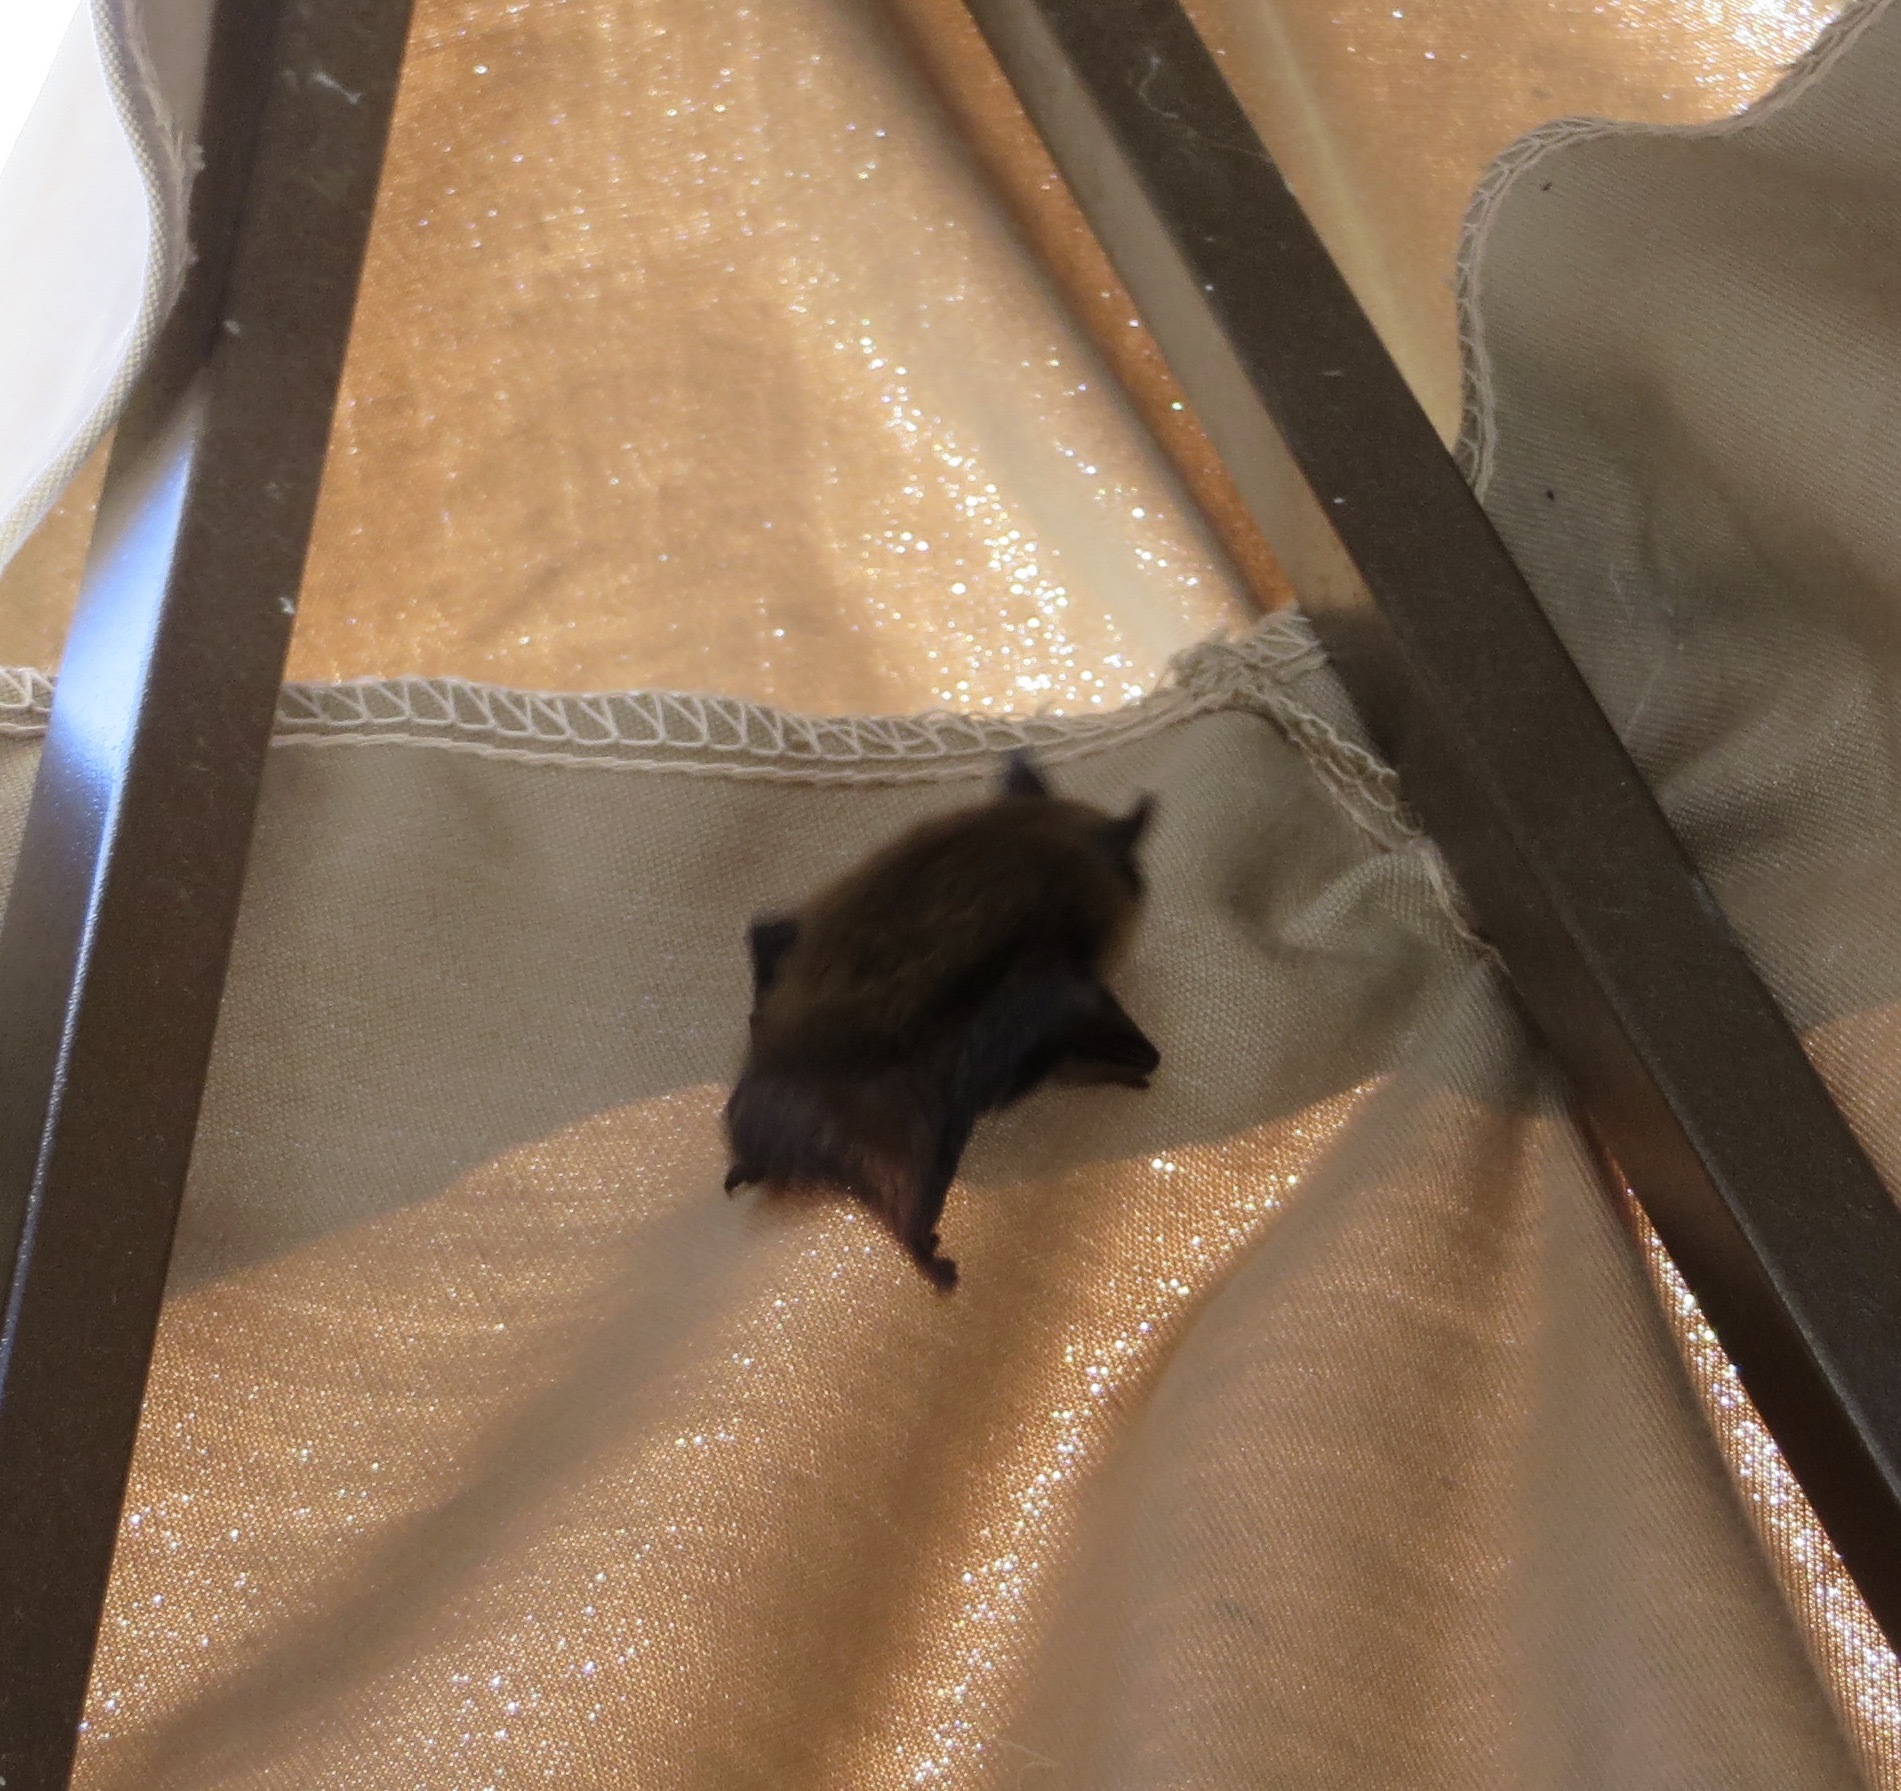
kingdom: Animalia
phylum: Chordata
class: Mammalia
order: Chiroptera
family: Vespertilionidae
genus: Myotis
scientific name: Myotis
